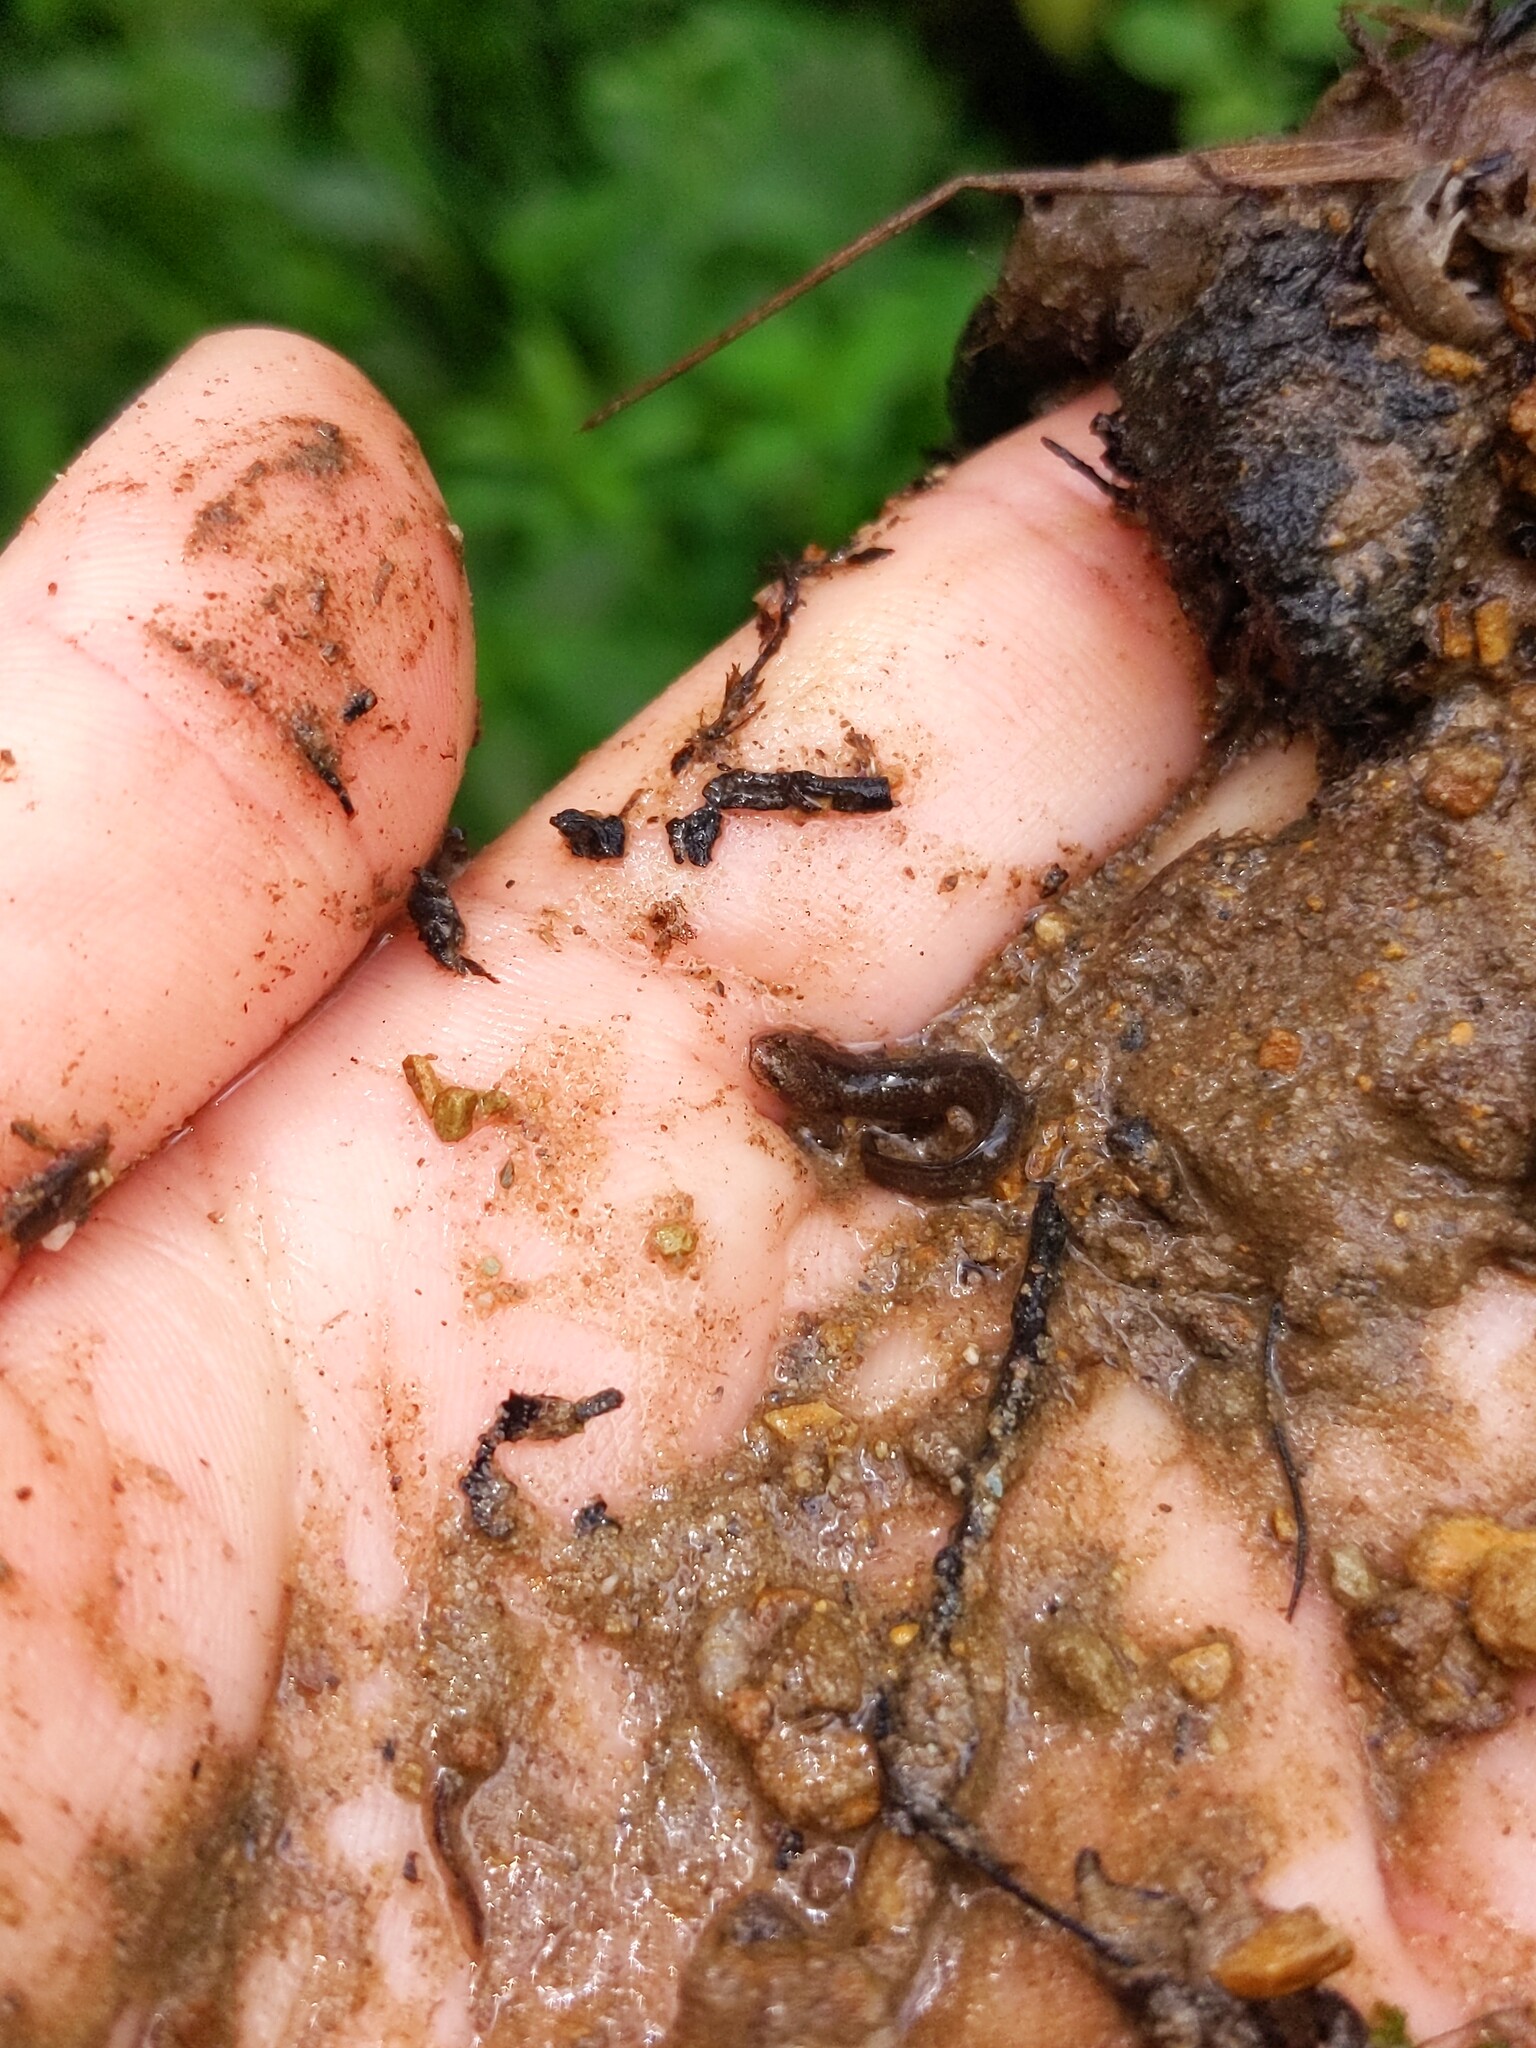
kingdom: Animalia
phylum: Chordata
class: Amphibia
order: Caudata
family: Plethodontidae
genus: Pseudotriton
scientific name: Pseudotriton ruber
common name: Red salamander
